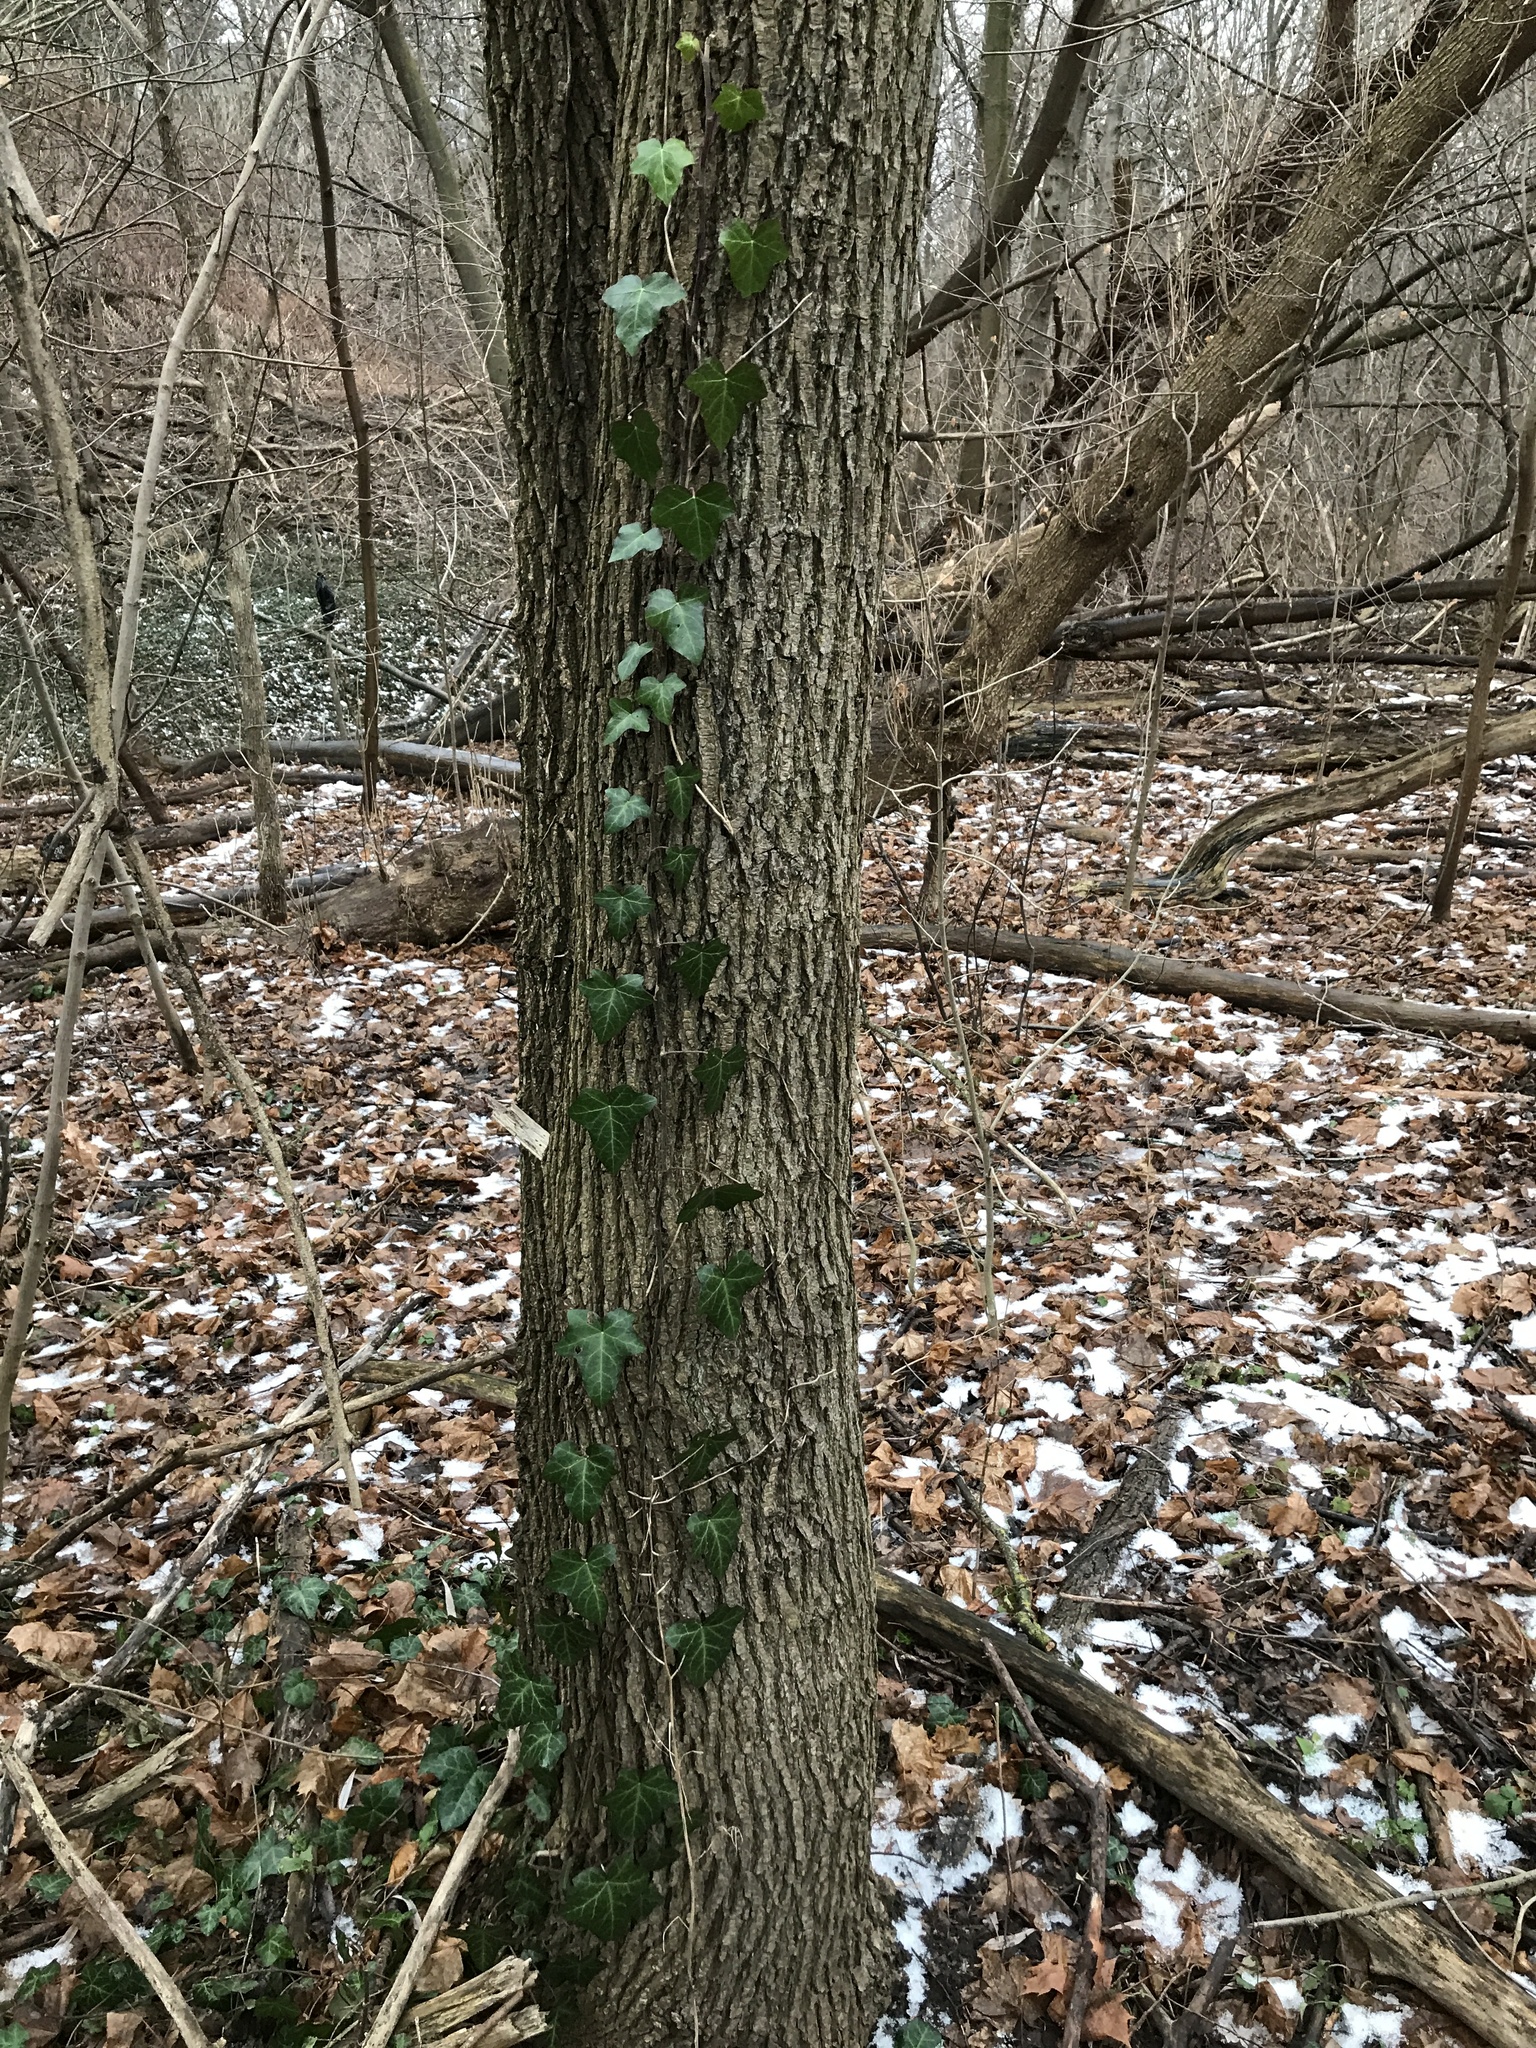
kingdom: Plantae
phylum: Tracheophyta
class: Magnoliopsida
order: Apiales
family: Araliaceae
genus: Hedera
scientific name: Hedera helix
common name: Ivy
